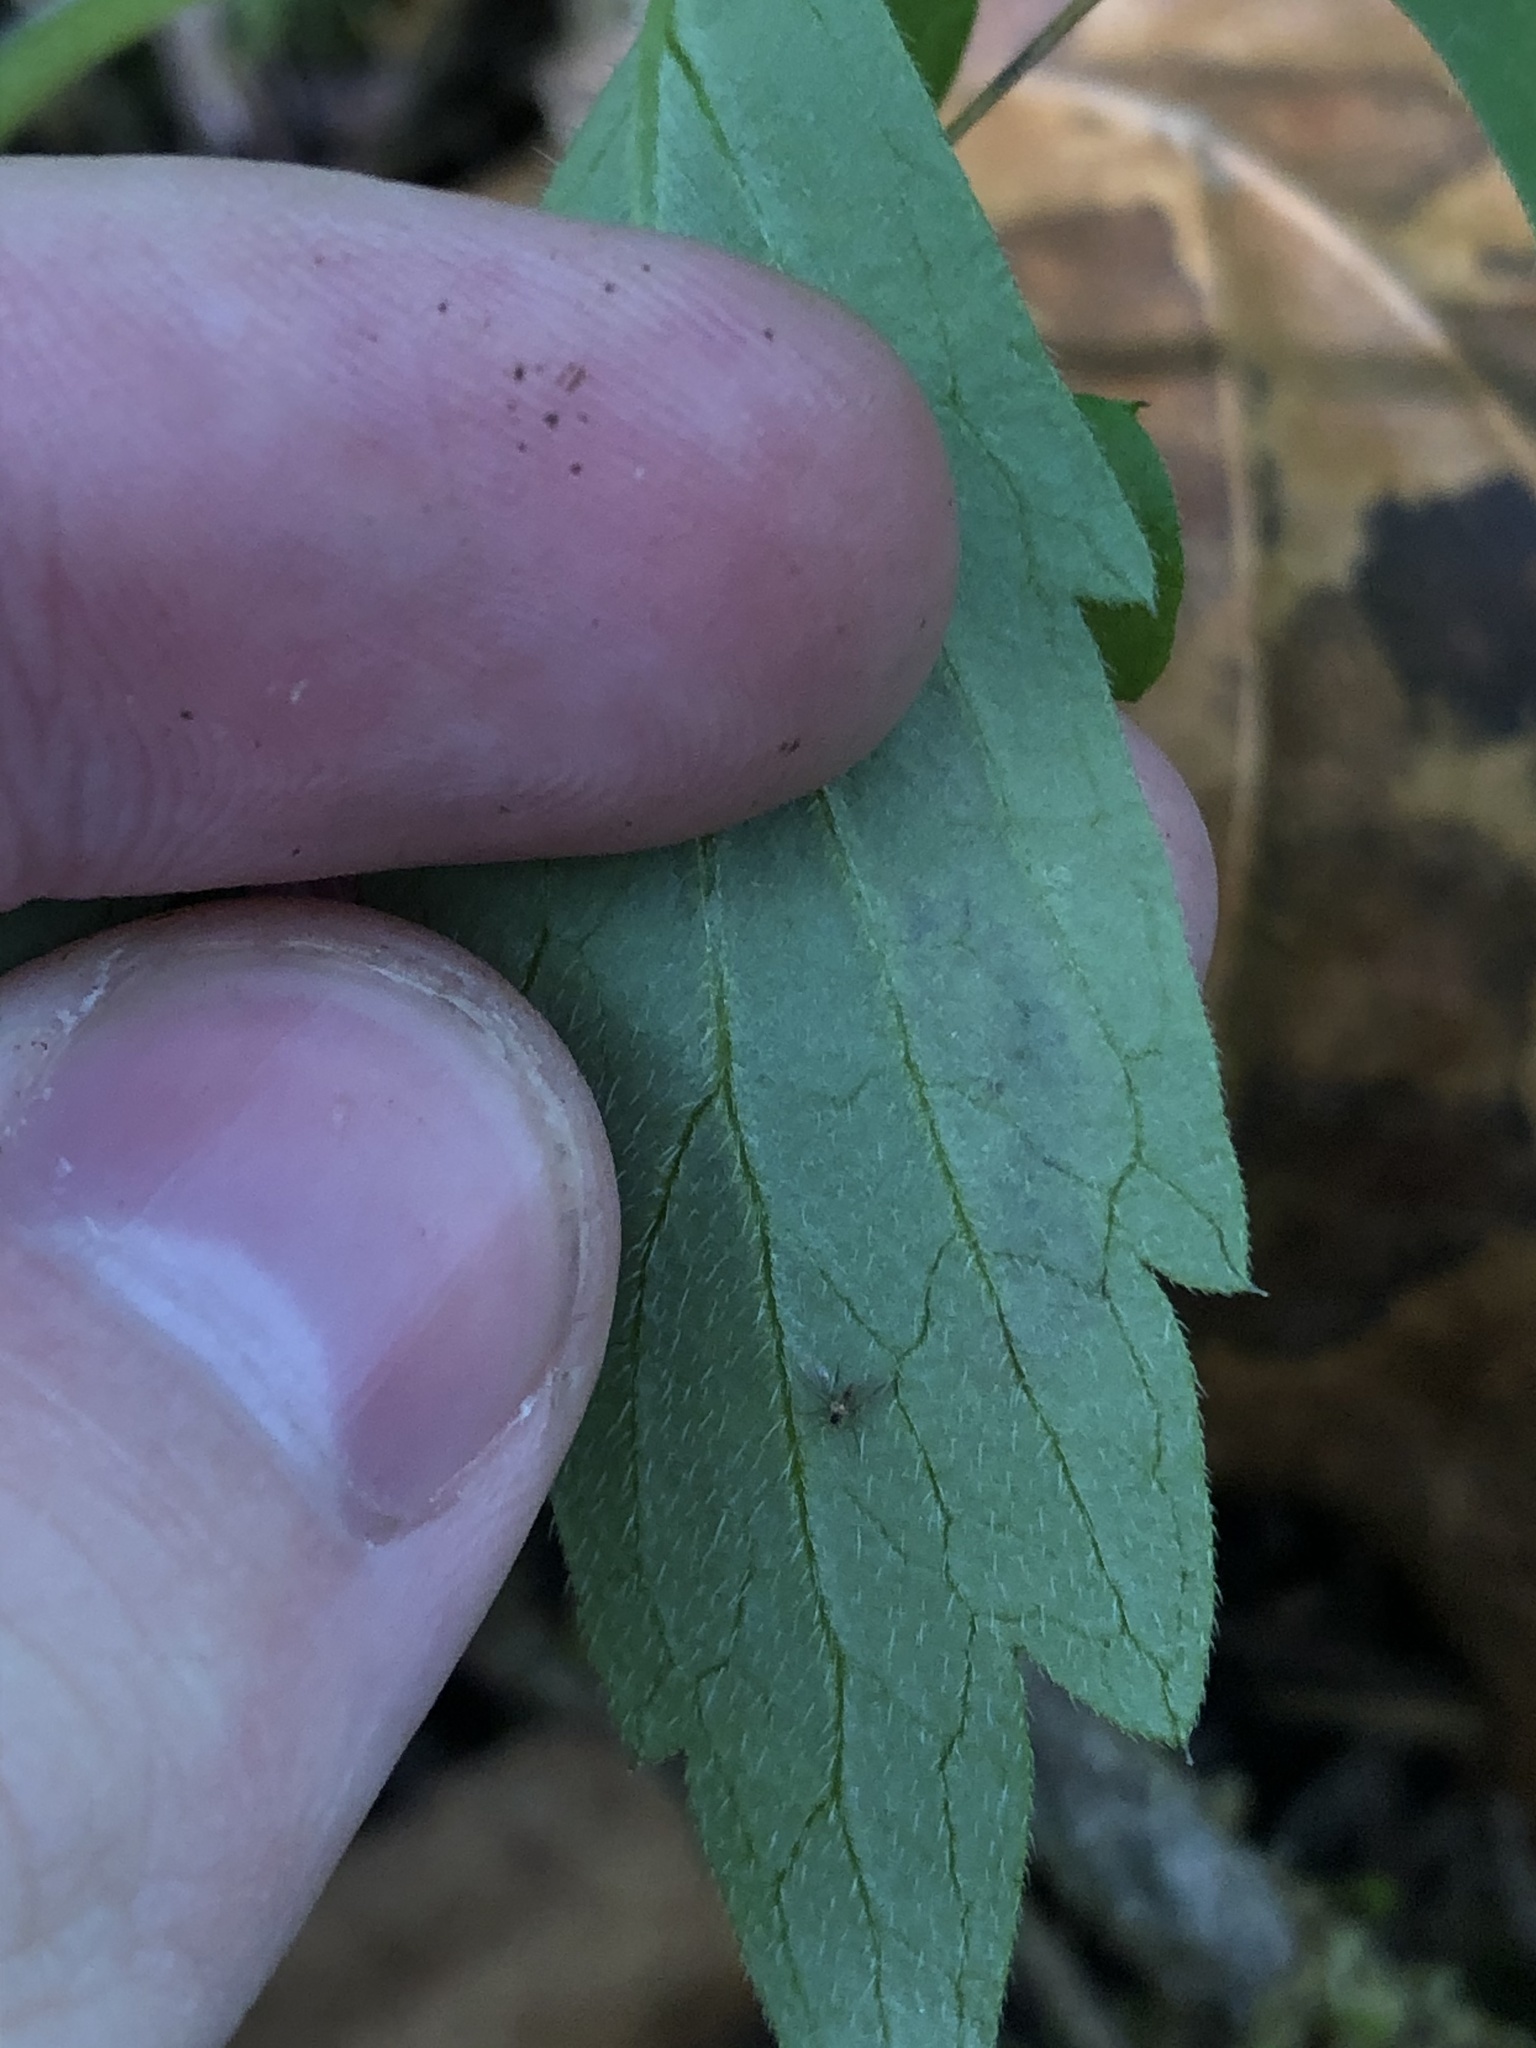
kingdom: Animalia
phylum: Arthropoda
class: Insecta
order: Diptera
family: Agromyzidae
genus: Agromyza
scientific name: Agromyza idaeiana
